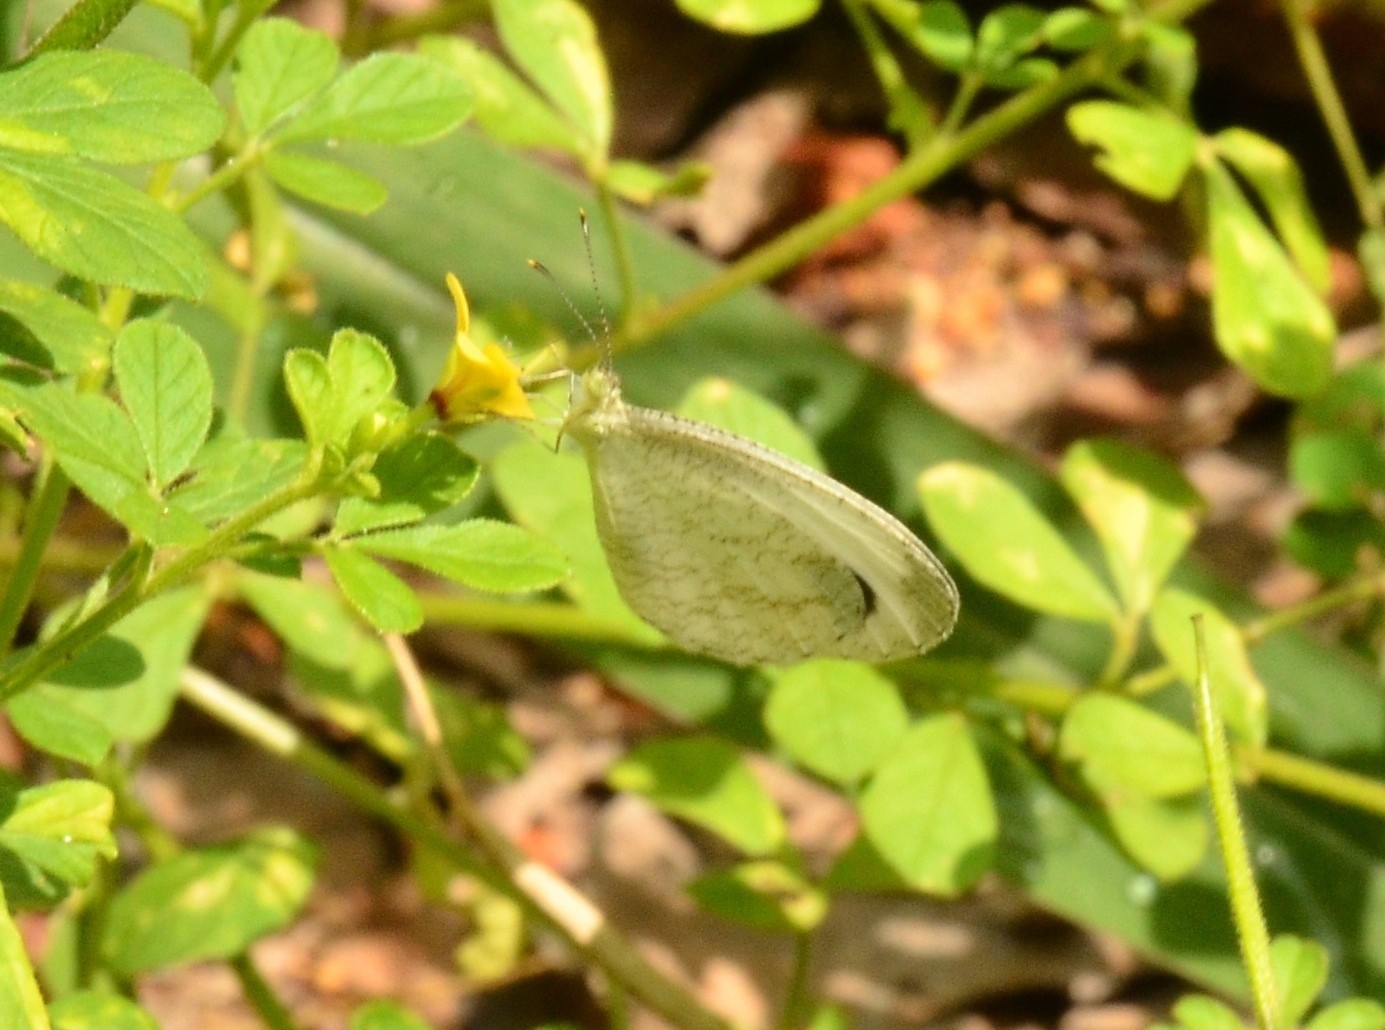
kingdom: Animalia
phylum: Arthropoda
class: Insecta
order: Lepidoptera
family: Pieridae
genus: Leptosia
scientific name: Leptosia nina
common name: Psyche
